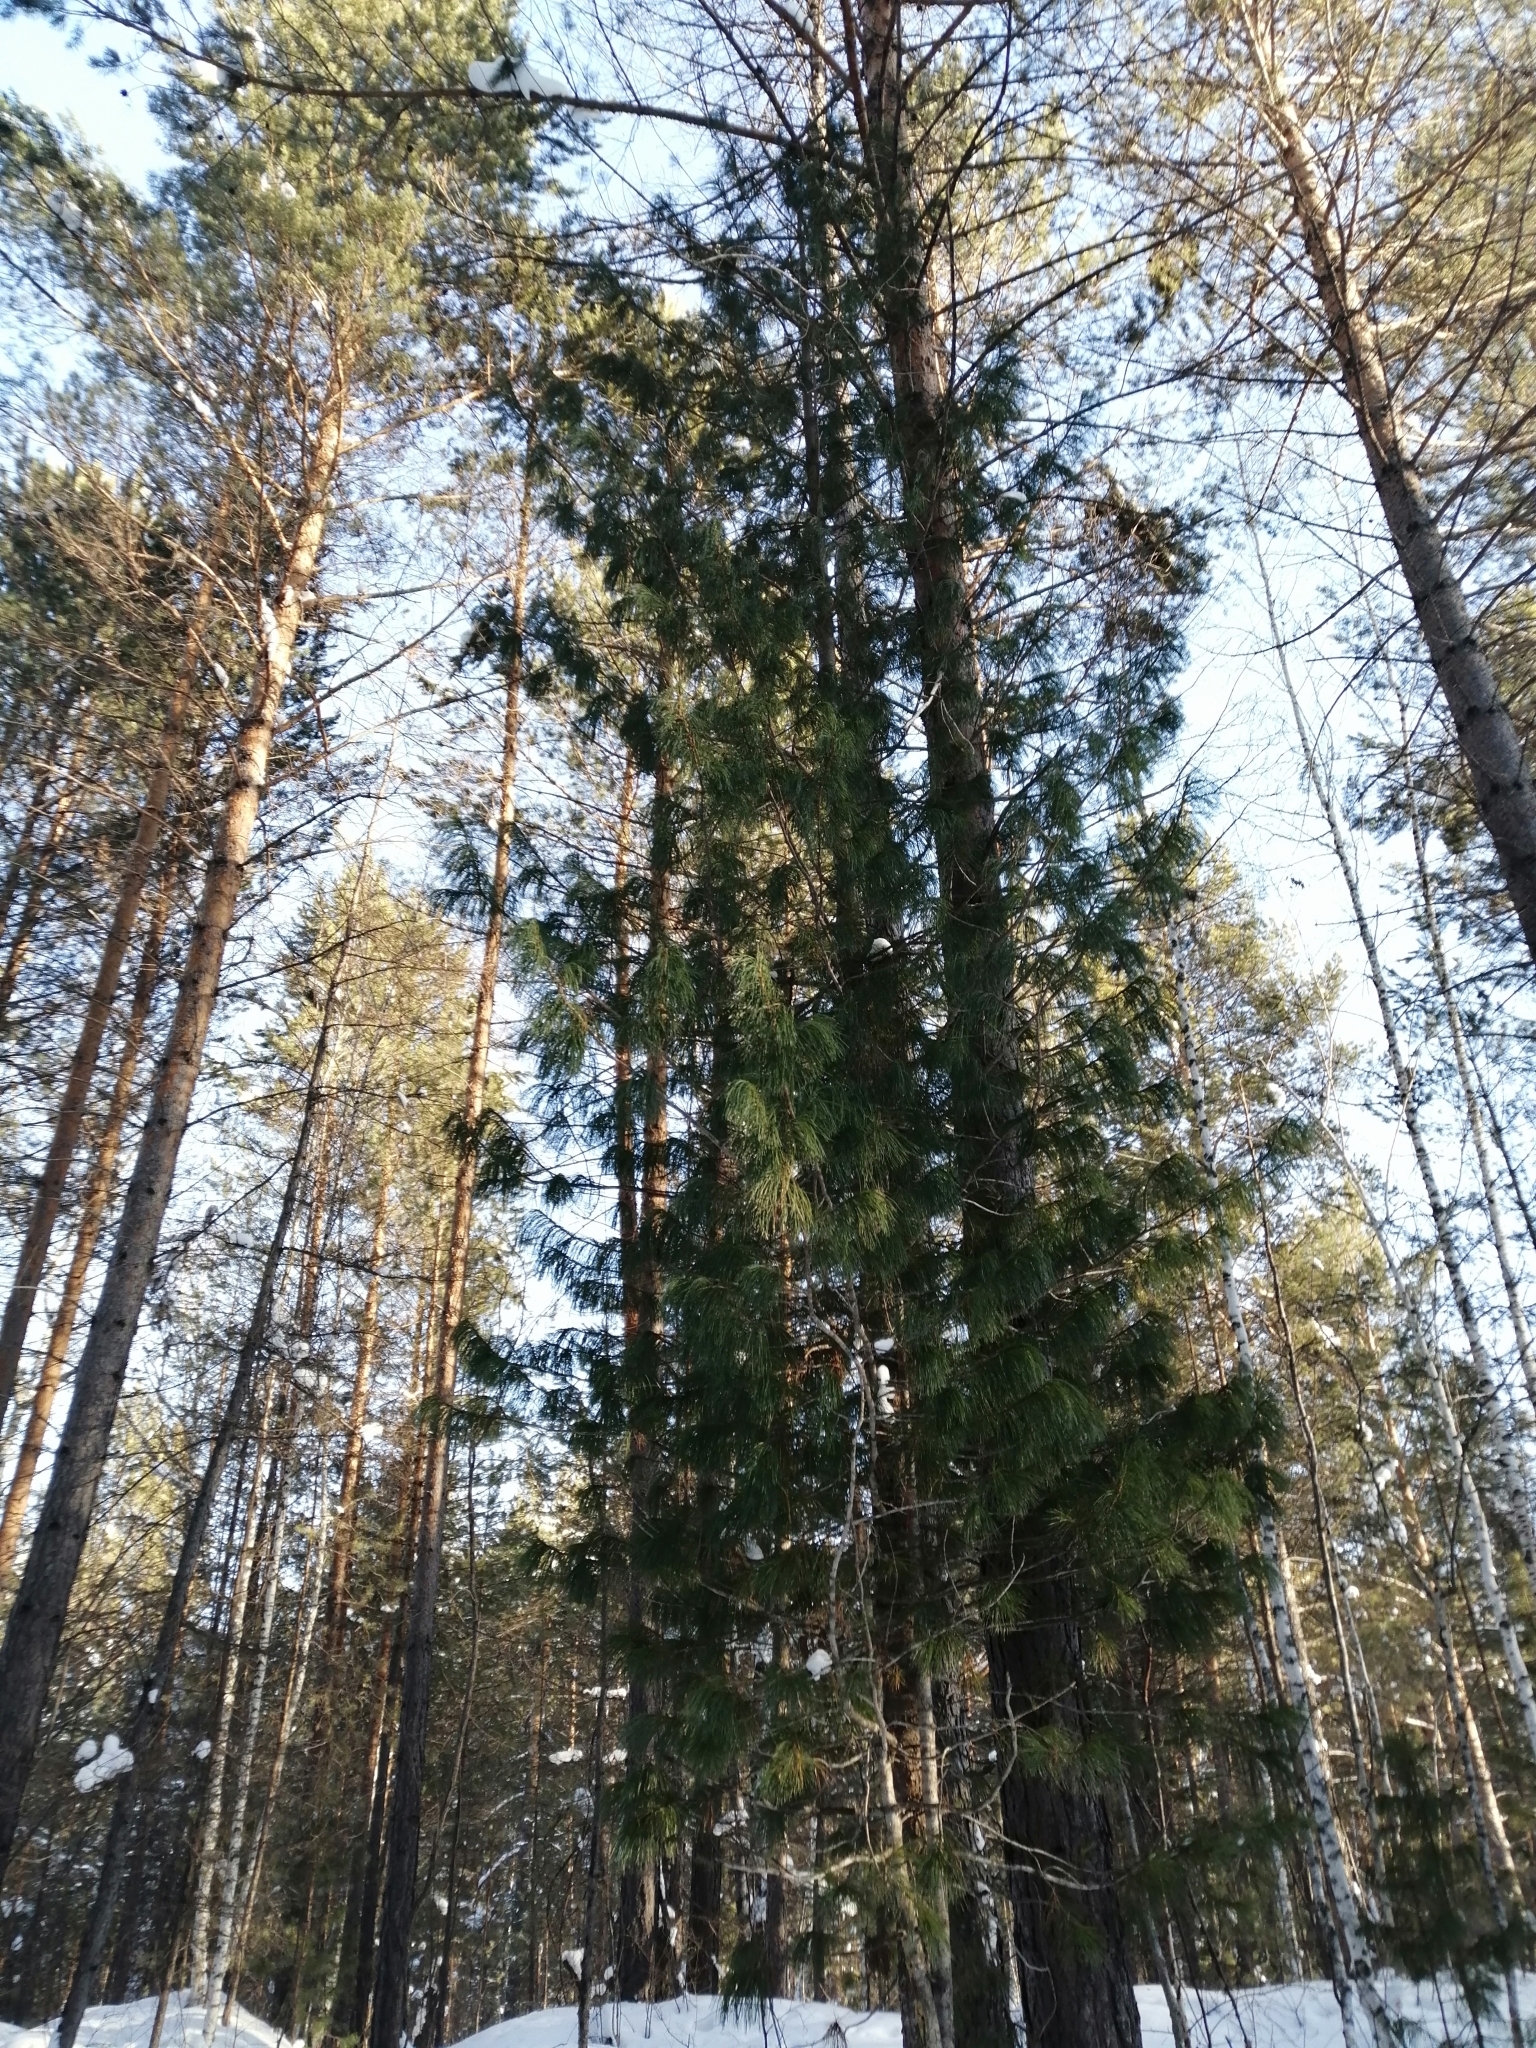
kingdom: Plantae
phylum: Tracheophyta
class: Pinopsida
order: Pinales
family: Pinaceae
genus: Pinus
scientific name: Pinus sibirica
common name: Siberian pine
